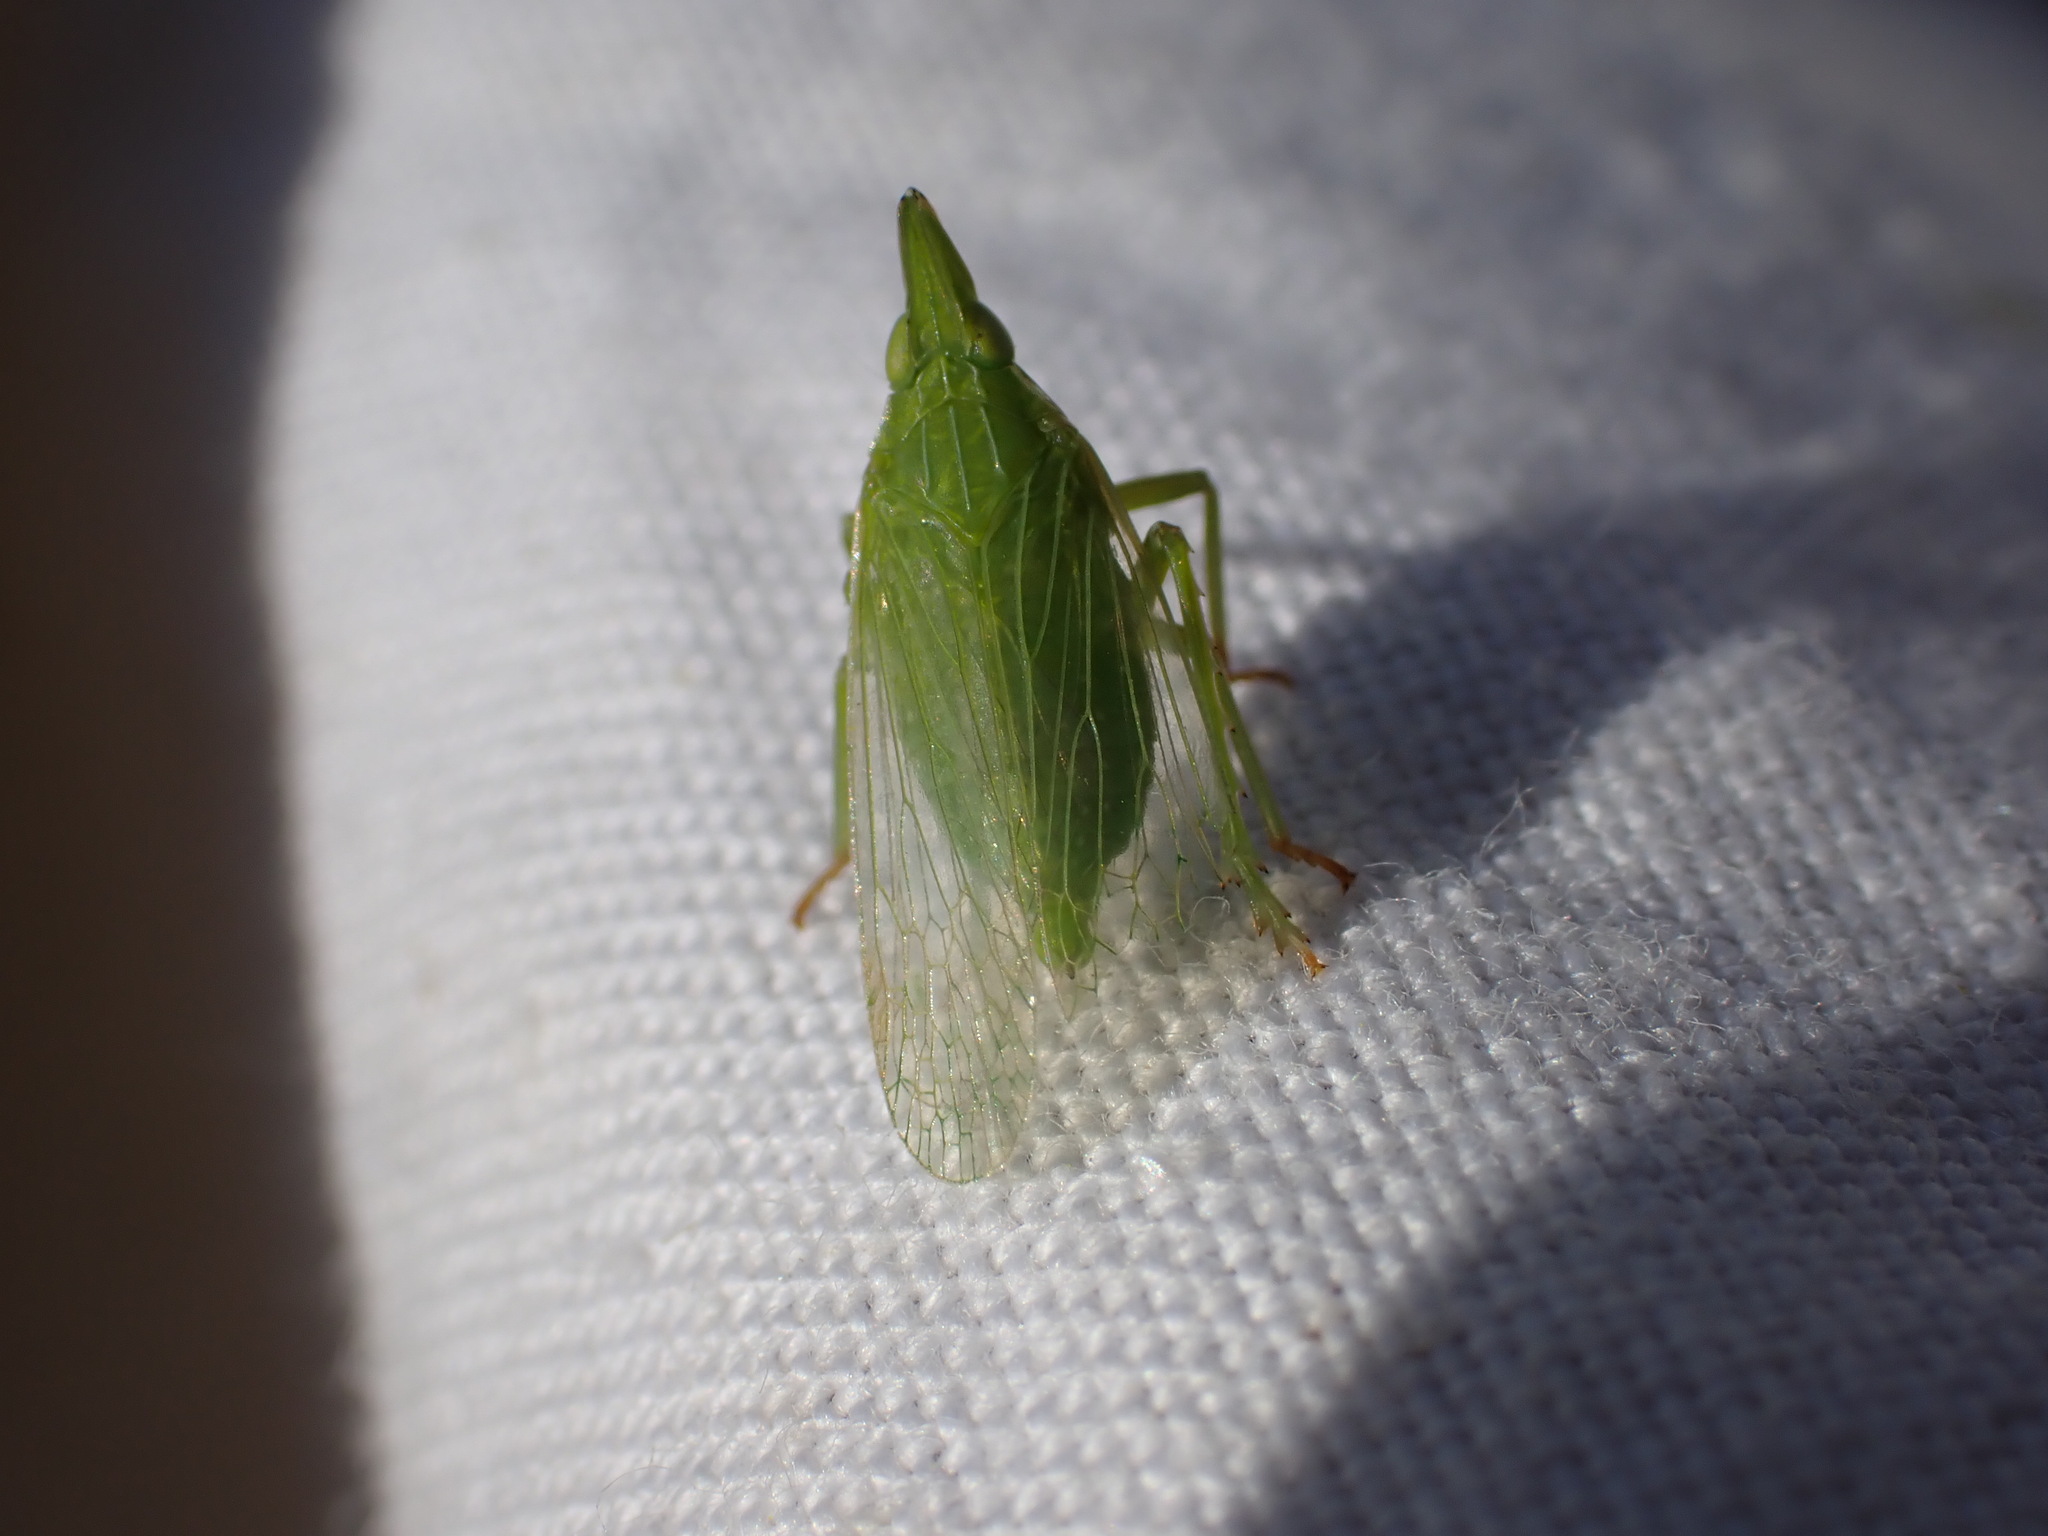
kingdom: Animalia
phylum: Arthropoda
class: Insecta
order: Hemiptera
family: Dictyopharidae
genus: Dictyophara
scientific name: Dictyophara europaea
